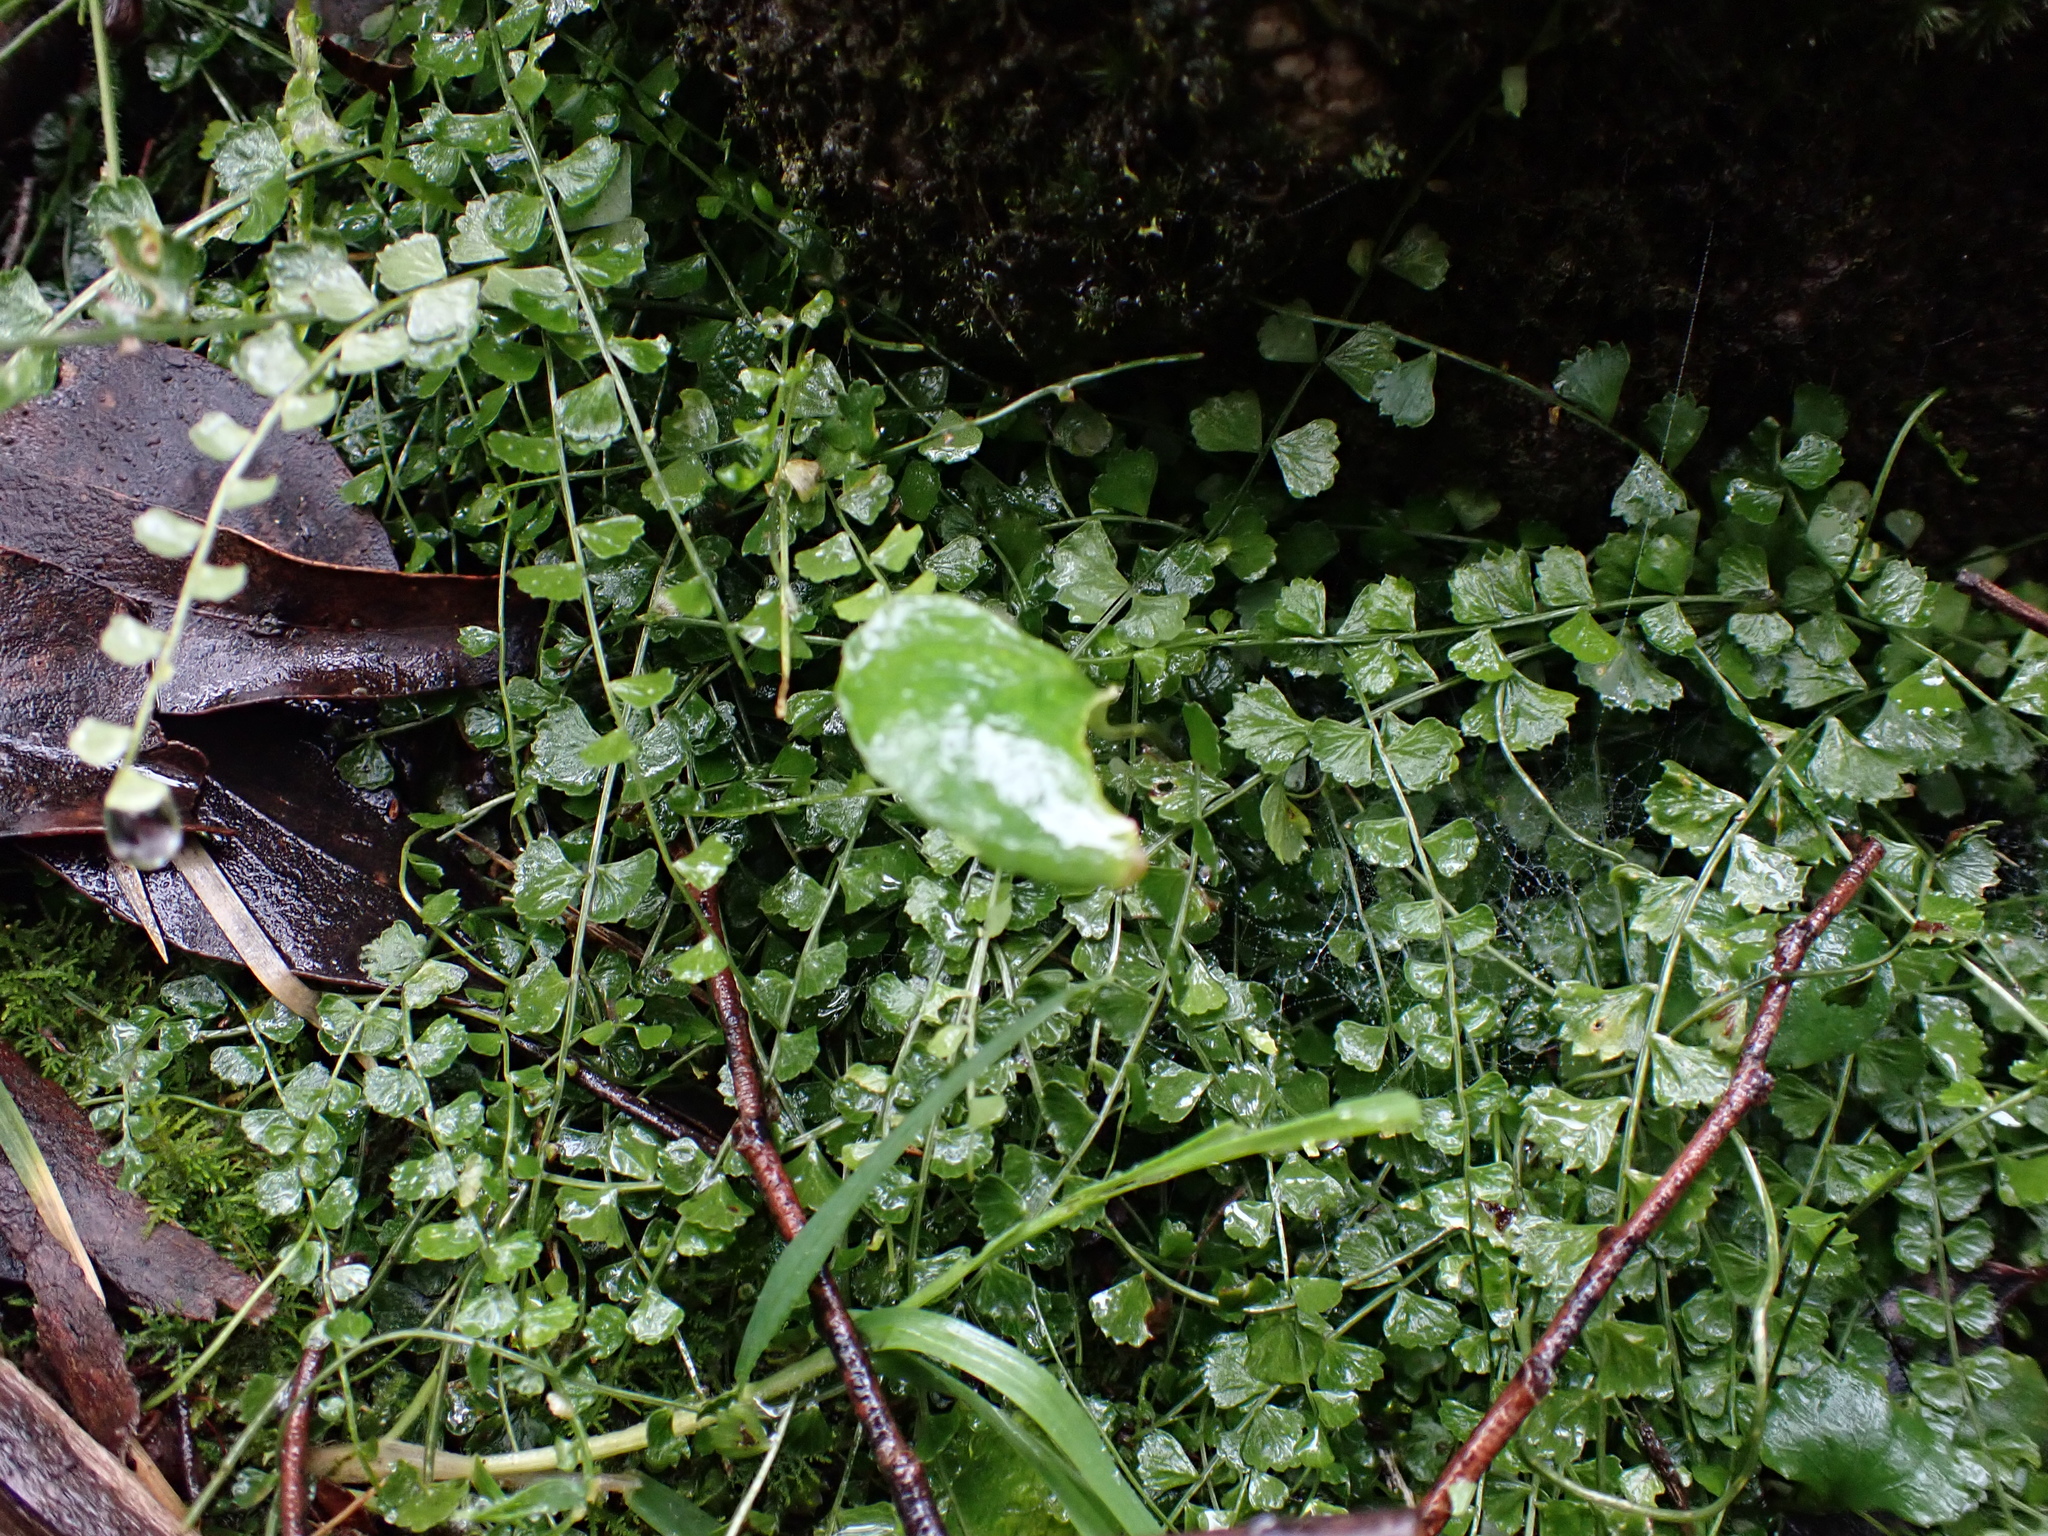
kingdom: Plantae
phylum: Tracheophyta
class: Polypodiopsida
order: Polypodiales
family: Aspleniaceae
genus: Asplenium
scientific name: Asplenium flabellifolium
